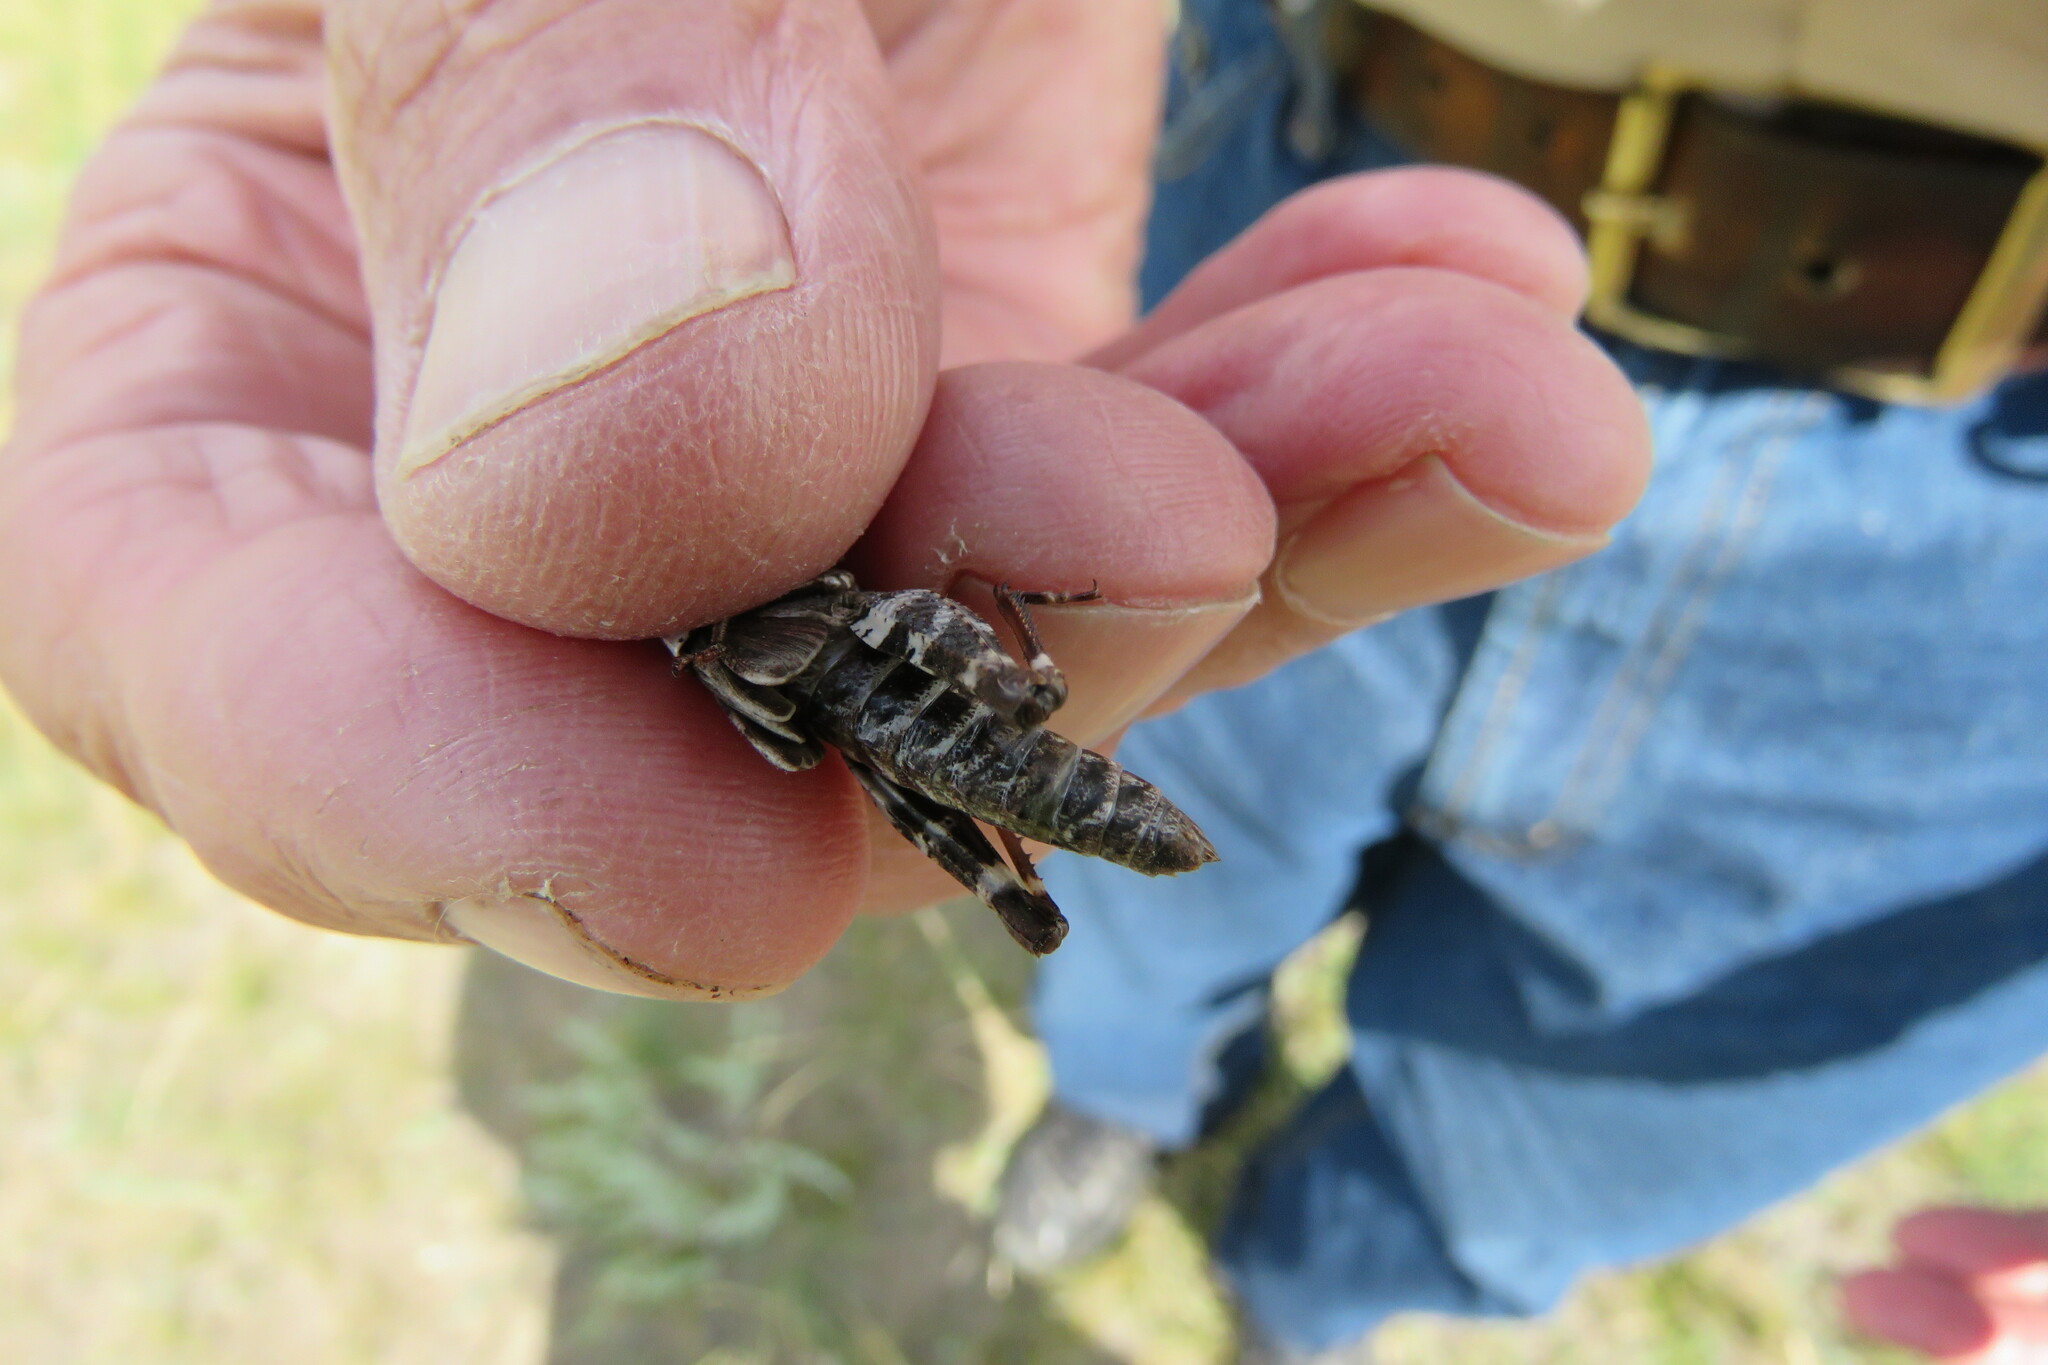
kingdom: Animalia
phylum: Arthropoda
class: Insecta
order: Orthoptera
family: Acrididae
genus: Arphia
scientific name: Arphia pseudo-nietana
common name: Red-winged grasshopper
